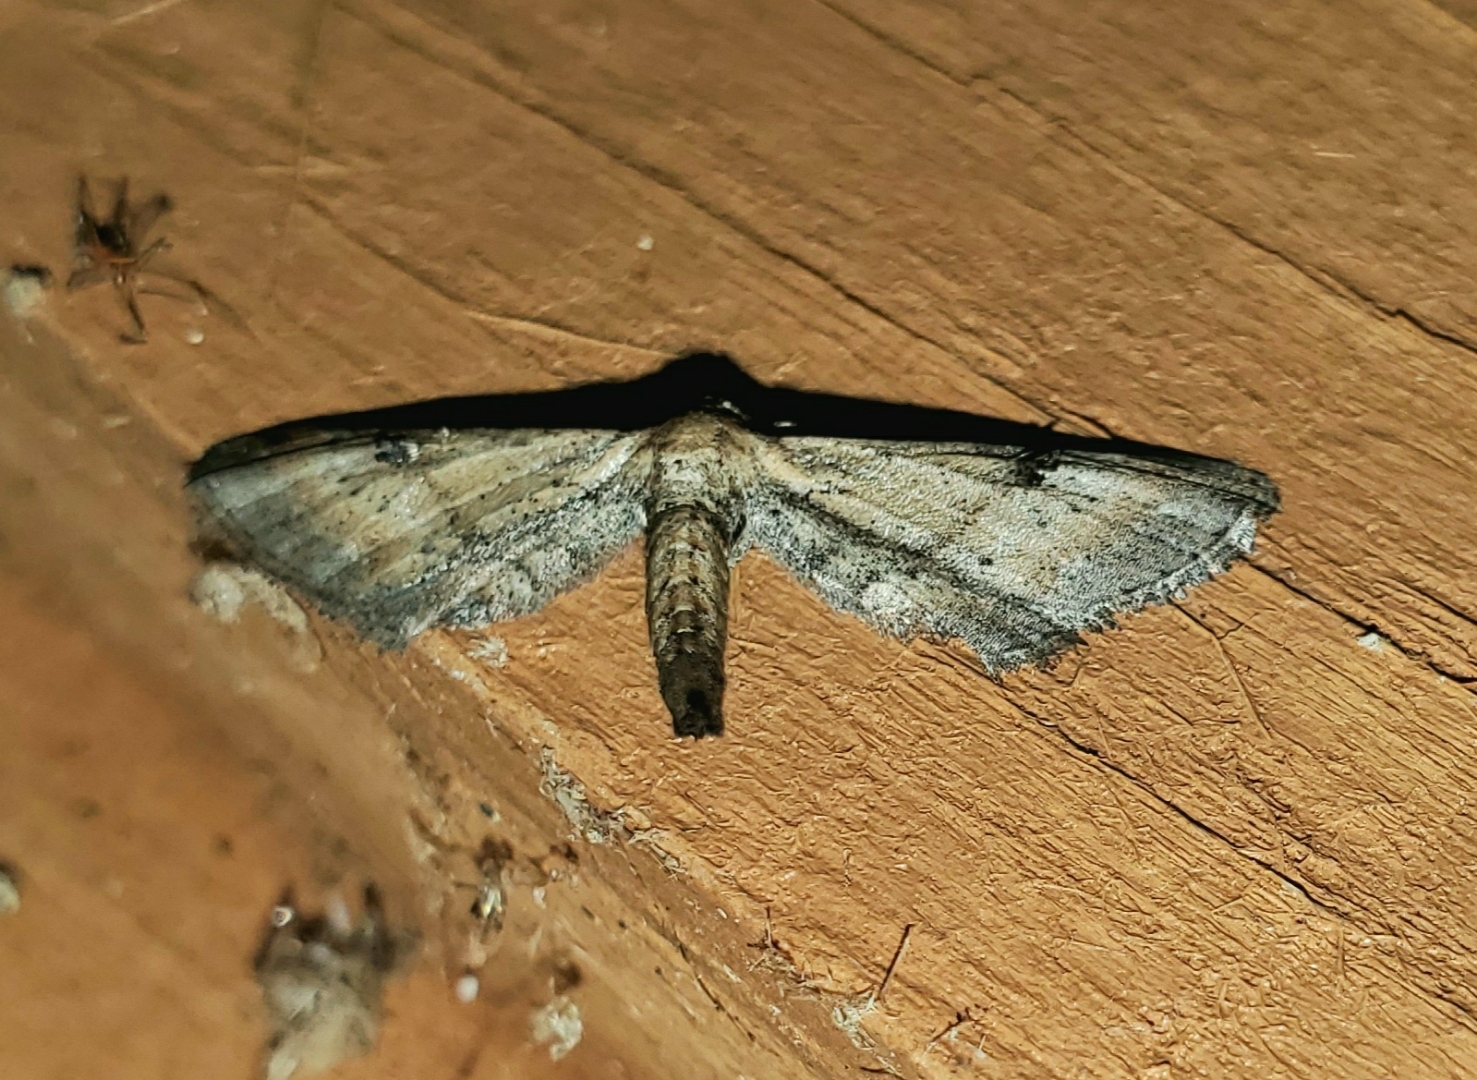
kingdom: Animalia
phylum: Arthropoda
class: Insecta
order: Lepidoptera
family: Geometridae
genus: Tornos
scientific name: Tornos scolopacinaria
